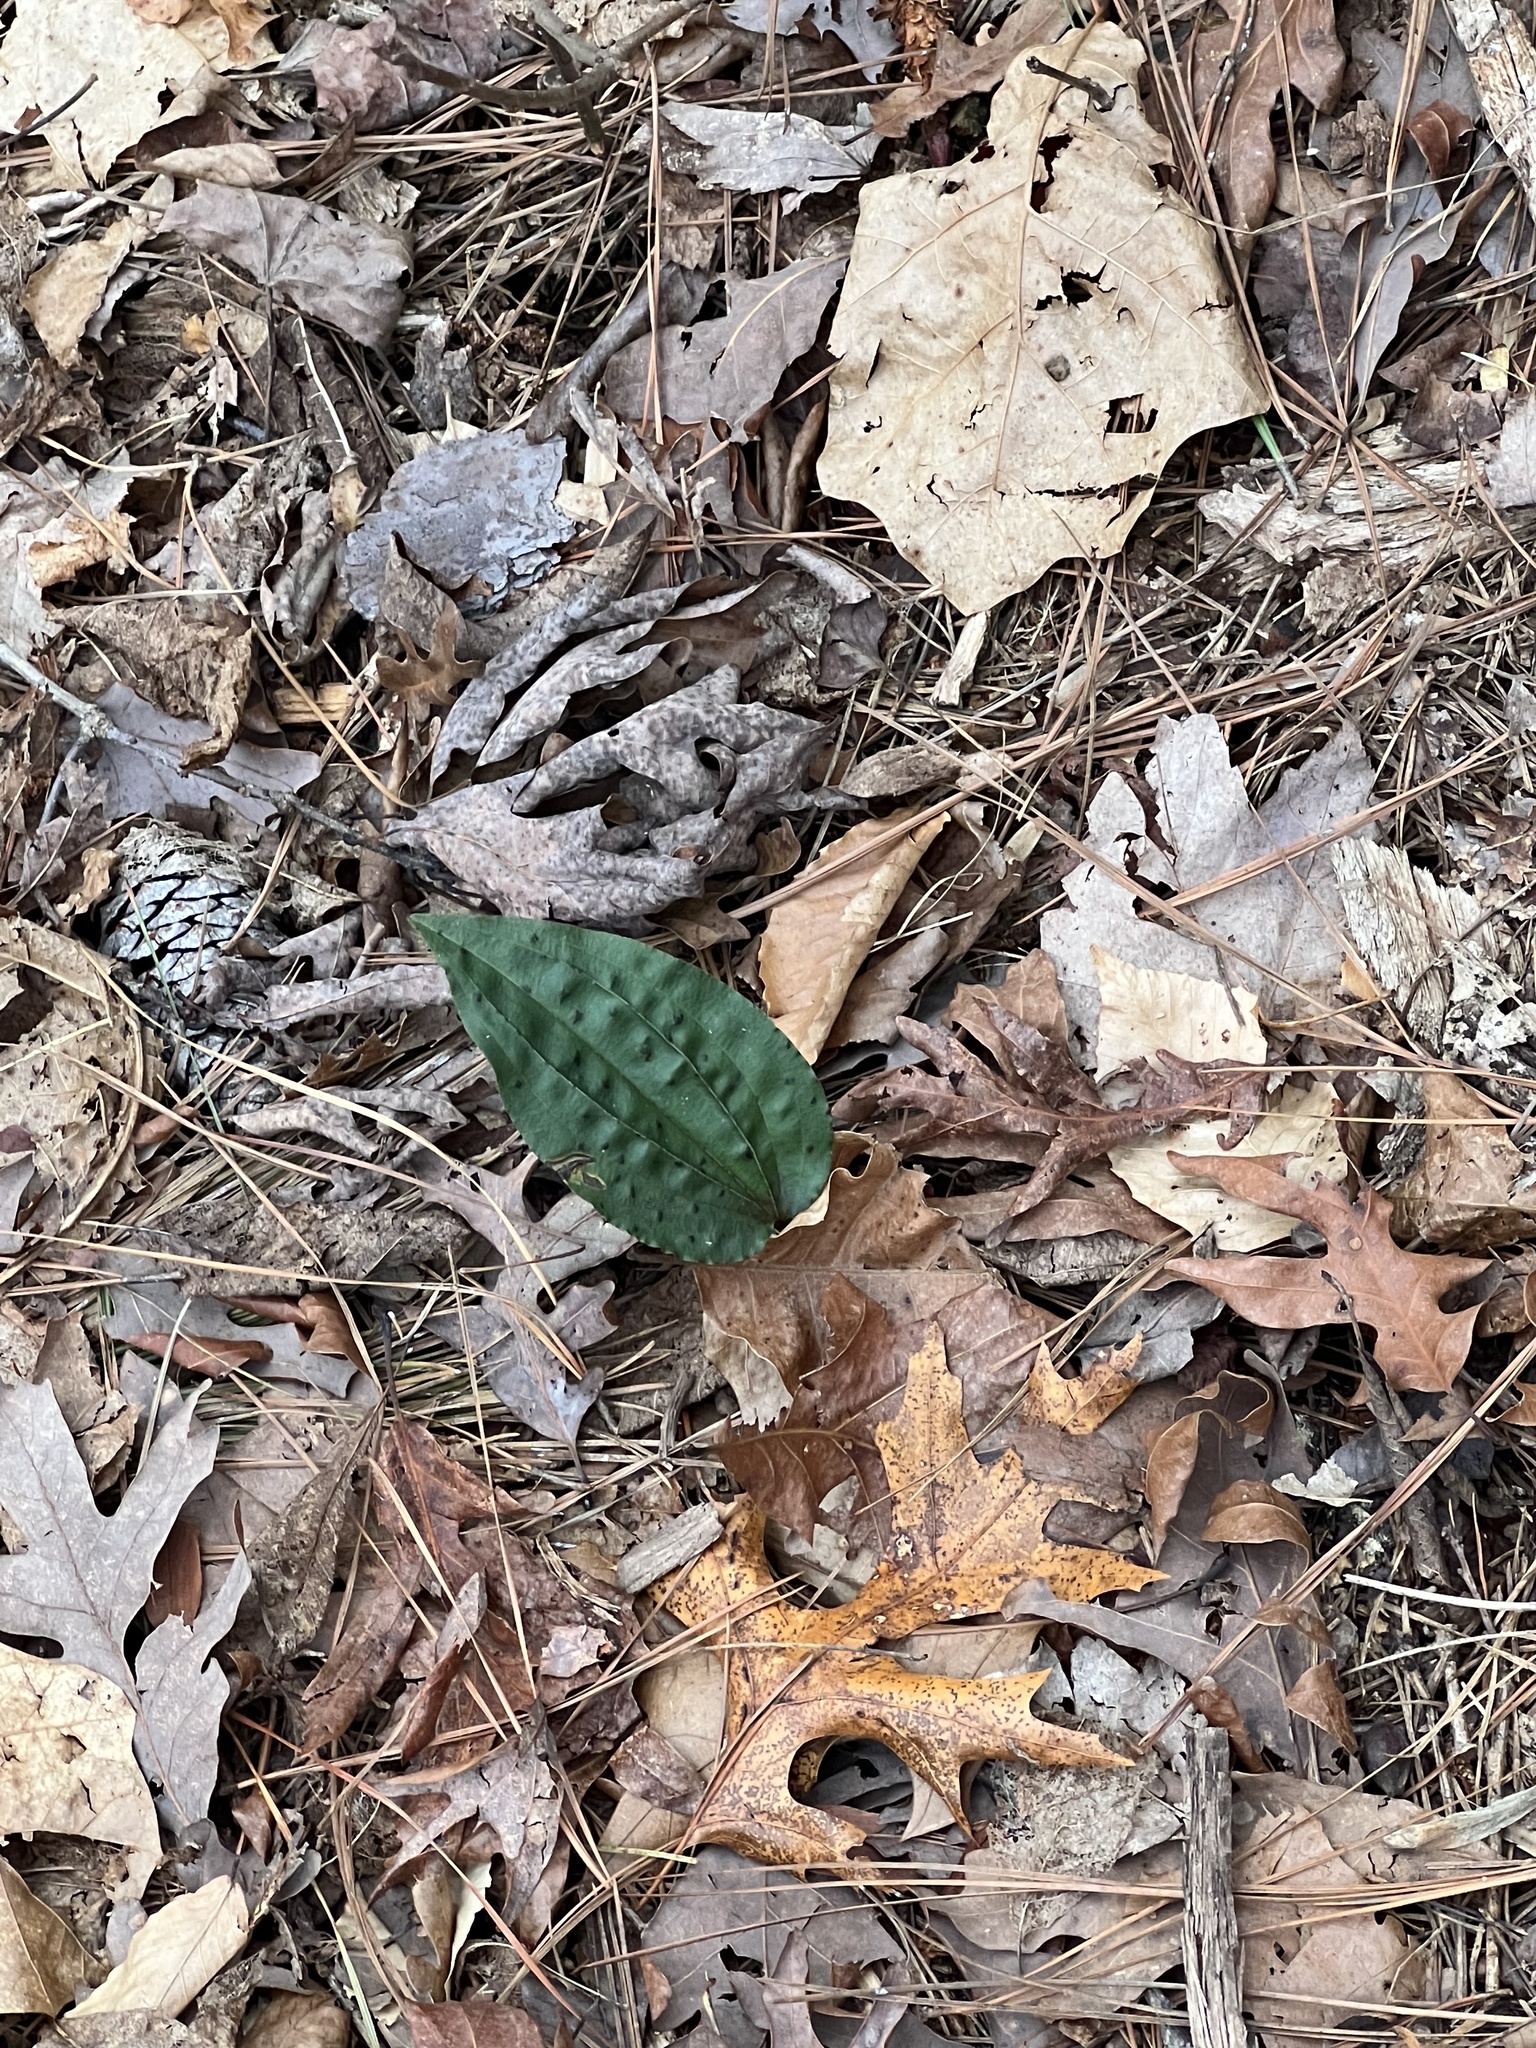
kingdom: Plantae
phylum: Tracheophyta
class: Liliopsida
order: Asparagales
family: Orchidaceae
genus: Tipularia
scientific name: Tipularia discolor
